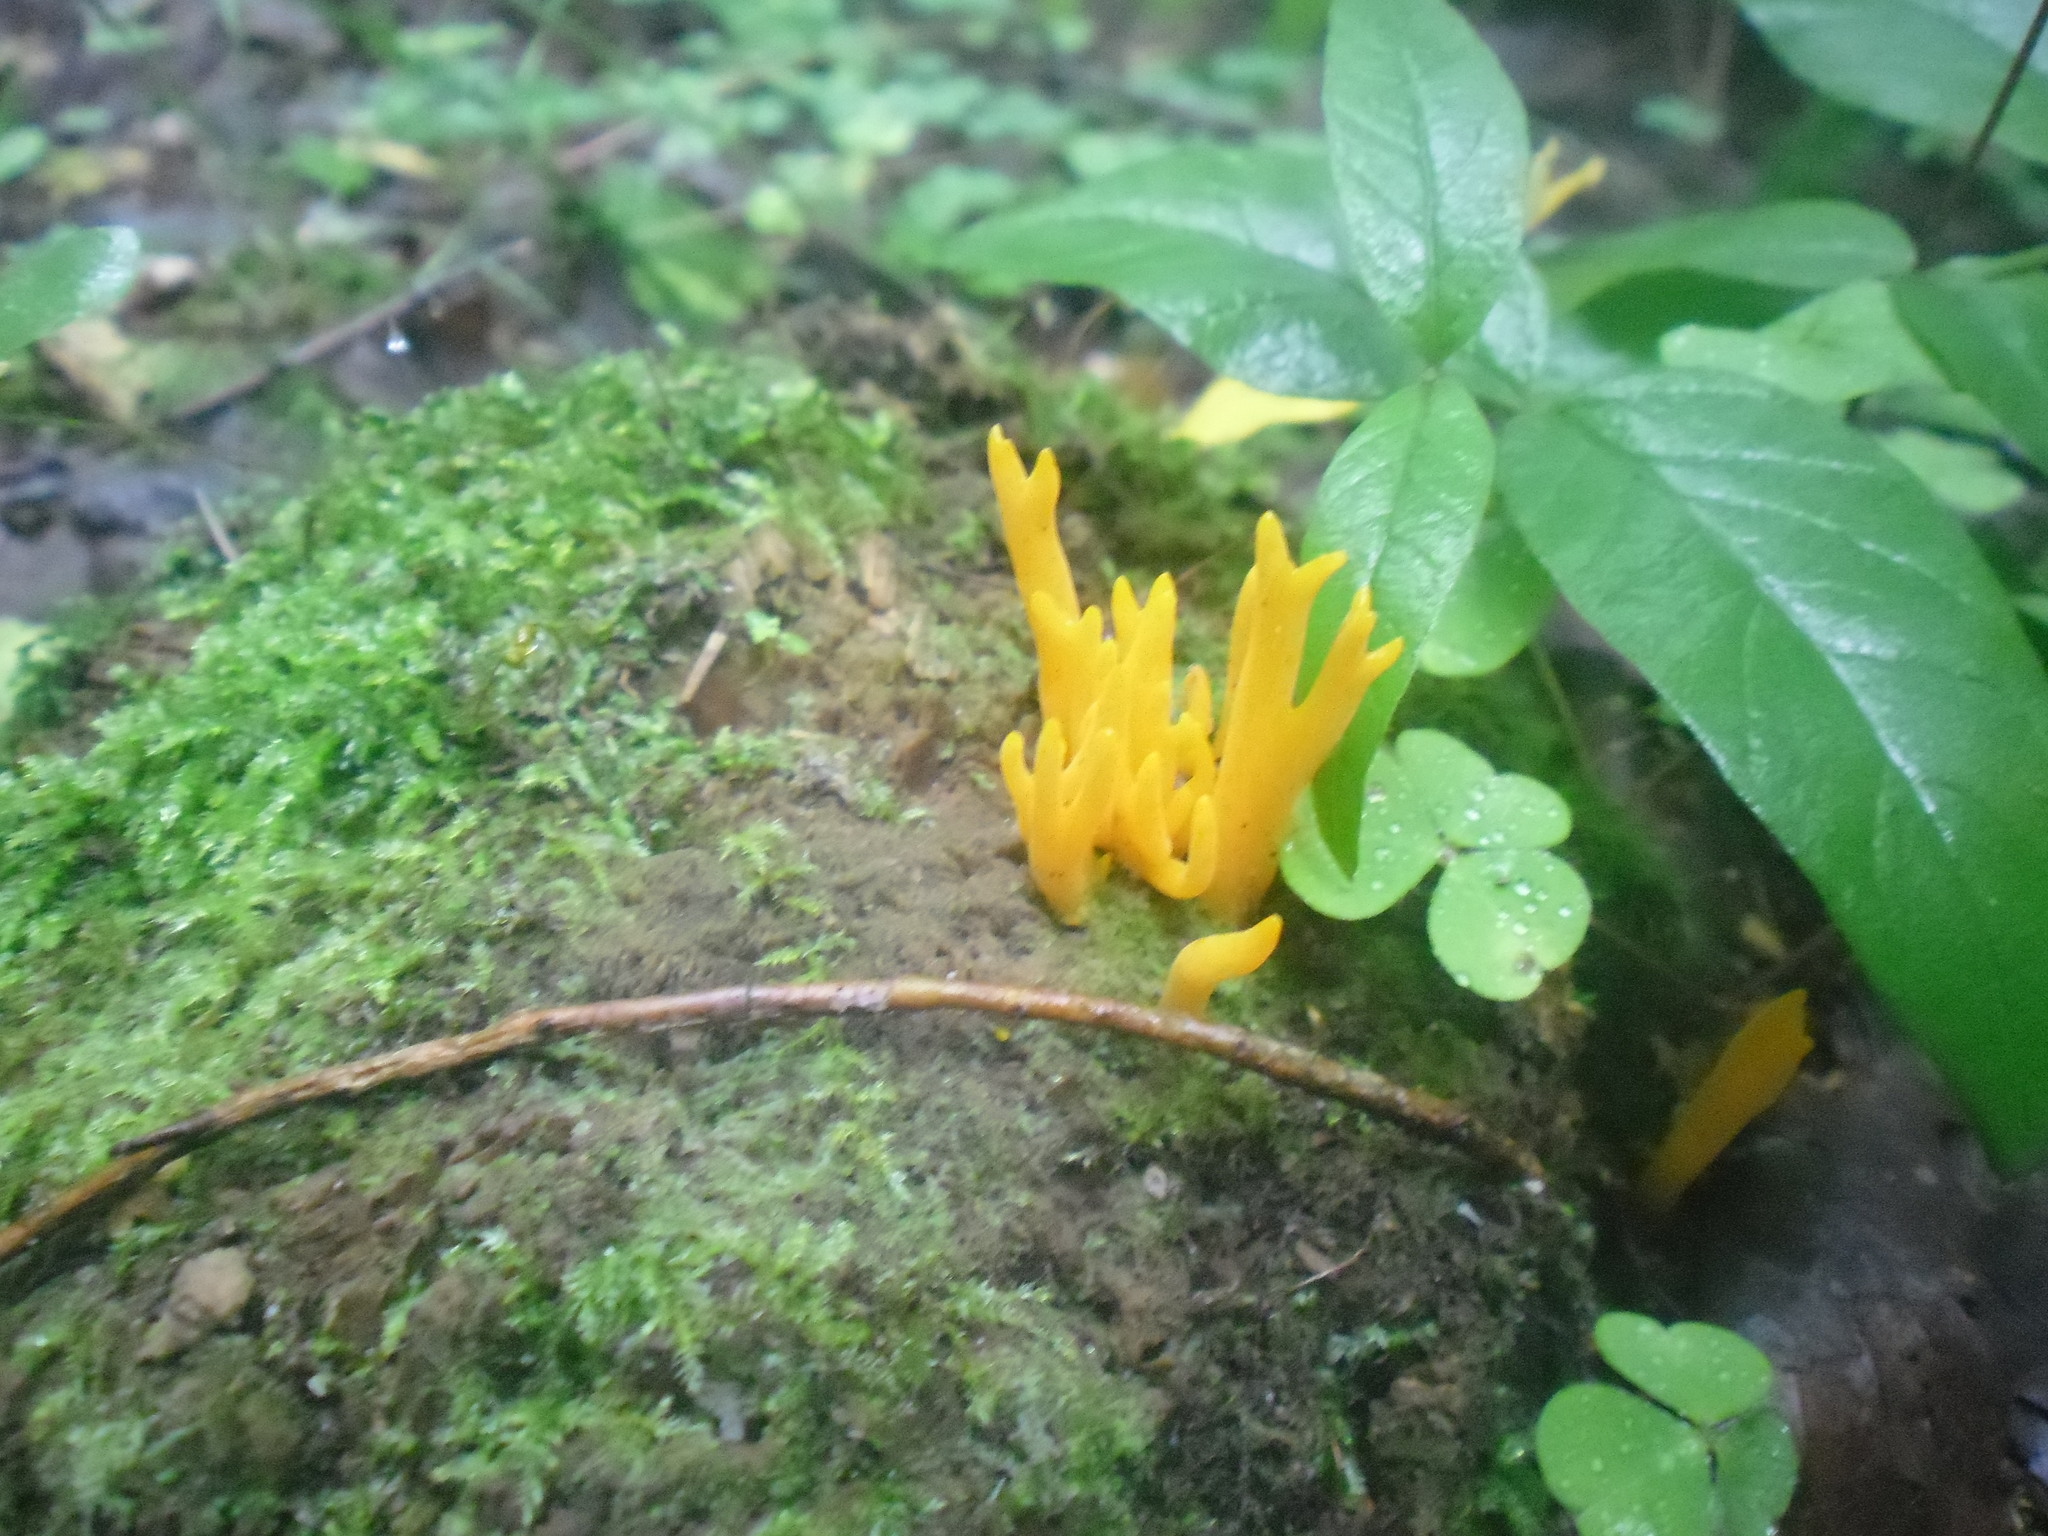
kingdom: Fungi
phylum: Basidiomycota
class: Dacrymycetes
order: Dacrymycetales
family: Dacrymycetaceae
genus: Calocera
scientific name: Calocera viscosa
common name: Yellow stagshorn
